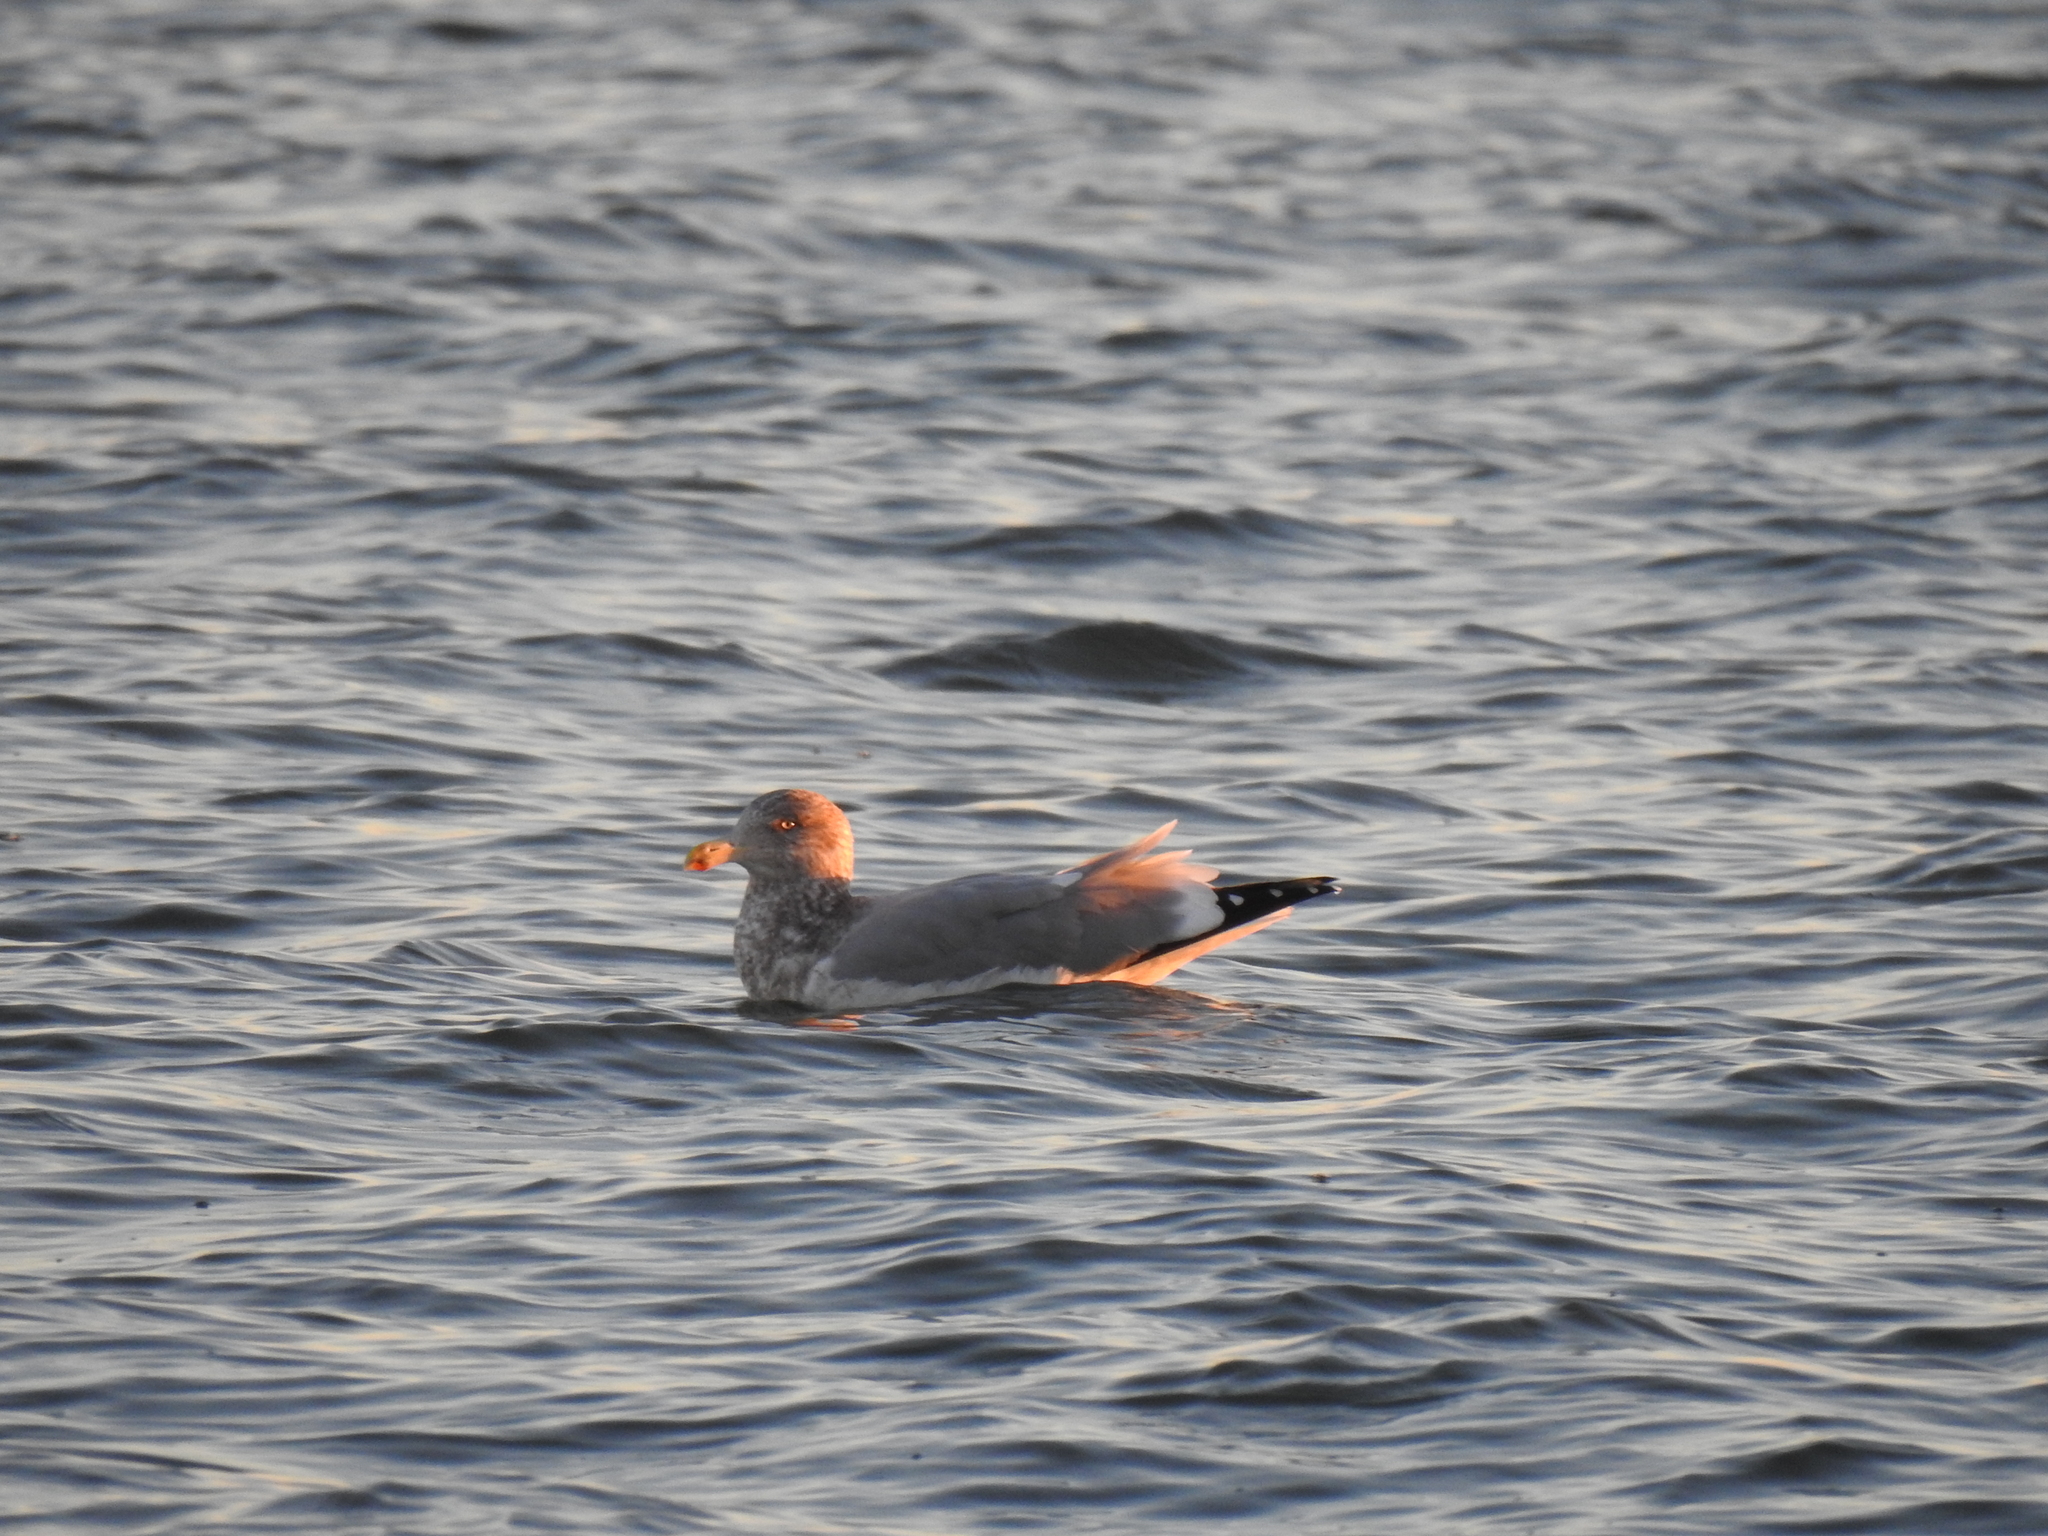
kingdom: Animalia
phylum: Chordata
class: Aves
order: Charadriiformes
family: Laridae
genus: Larus
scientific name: Larus argentatus
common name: Herring gull
